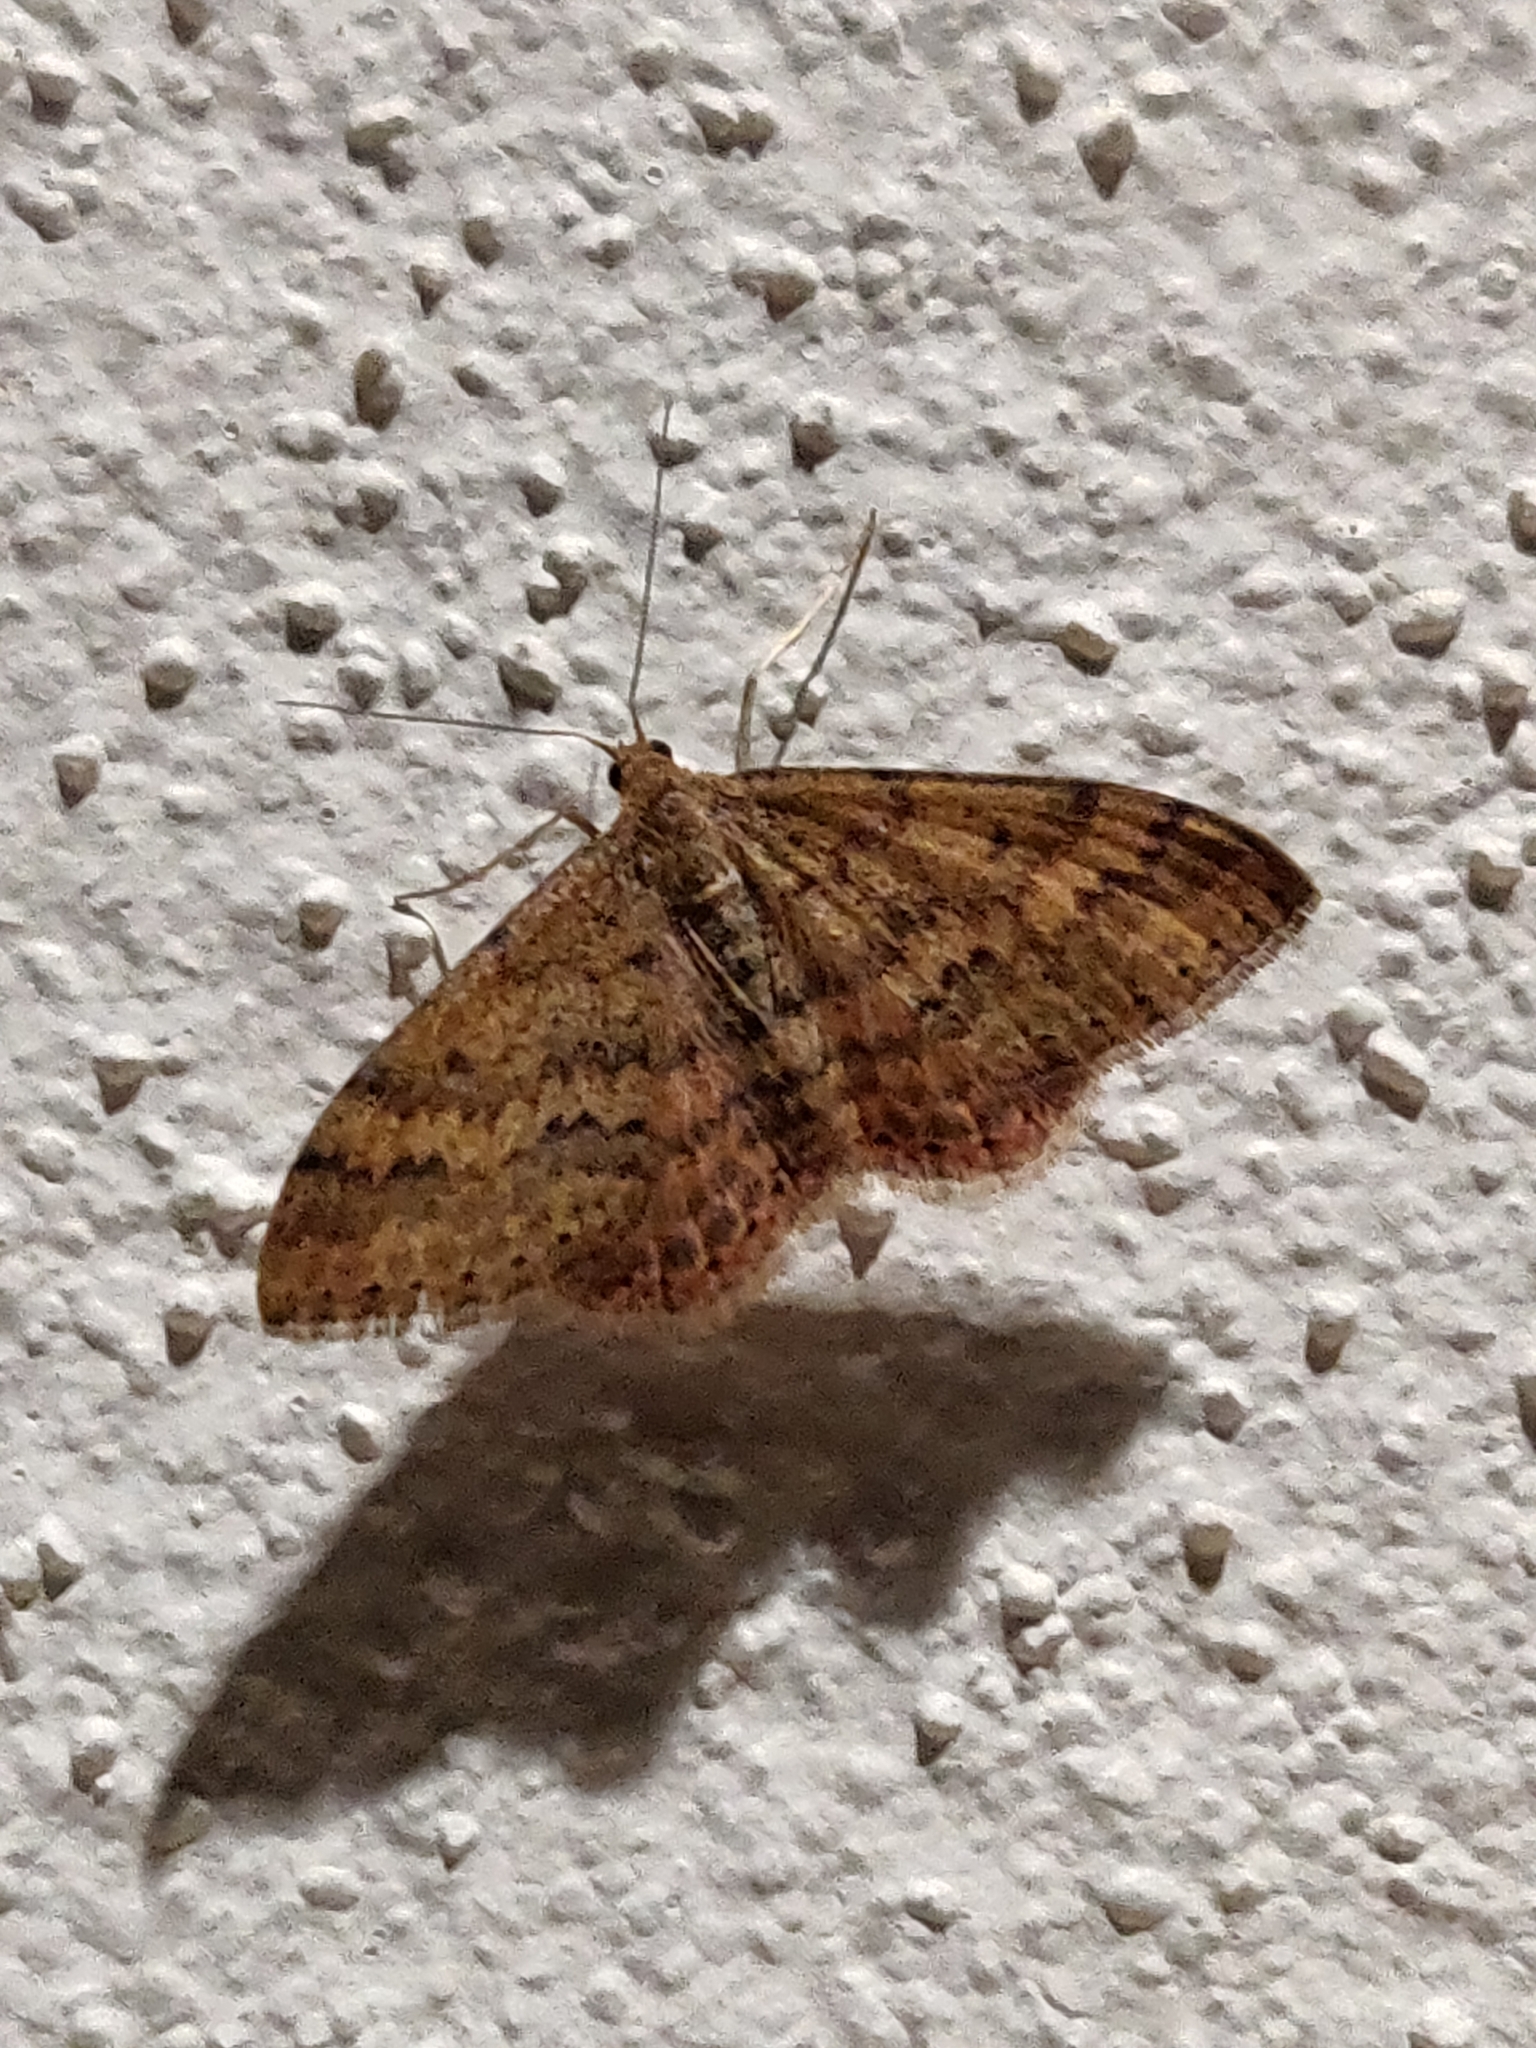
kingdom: Animalia
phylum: Arthropoda
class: Insecta
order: Lepidoptera
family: Geometridae
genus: Scopula
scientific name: Scopula rubraria
